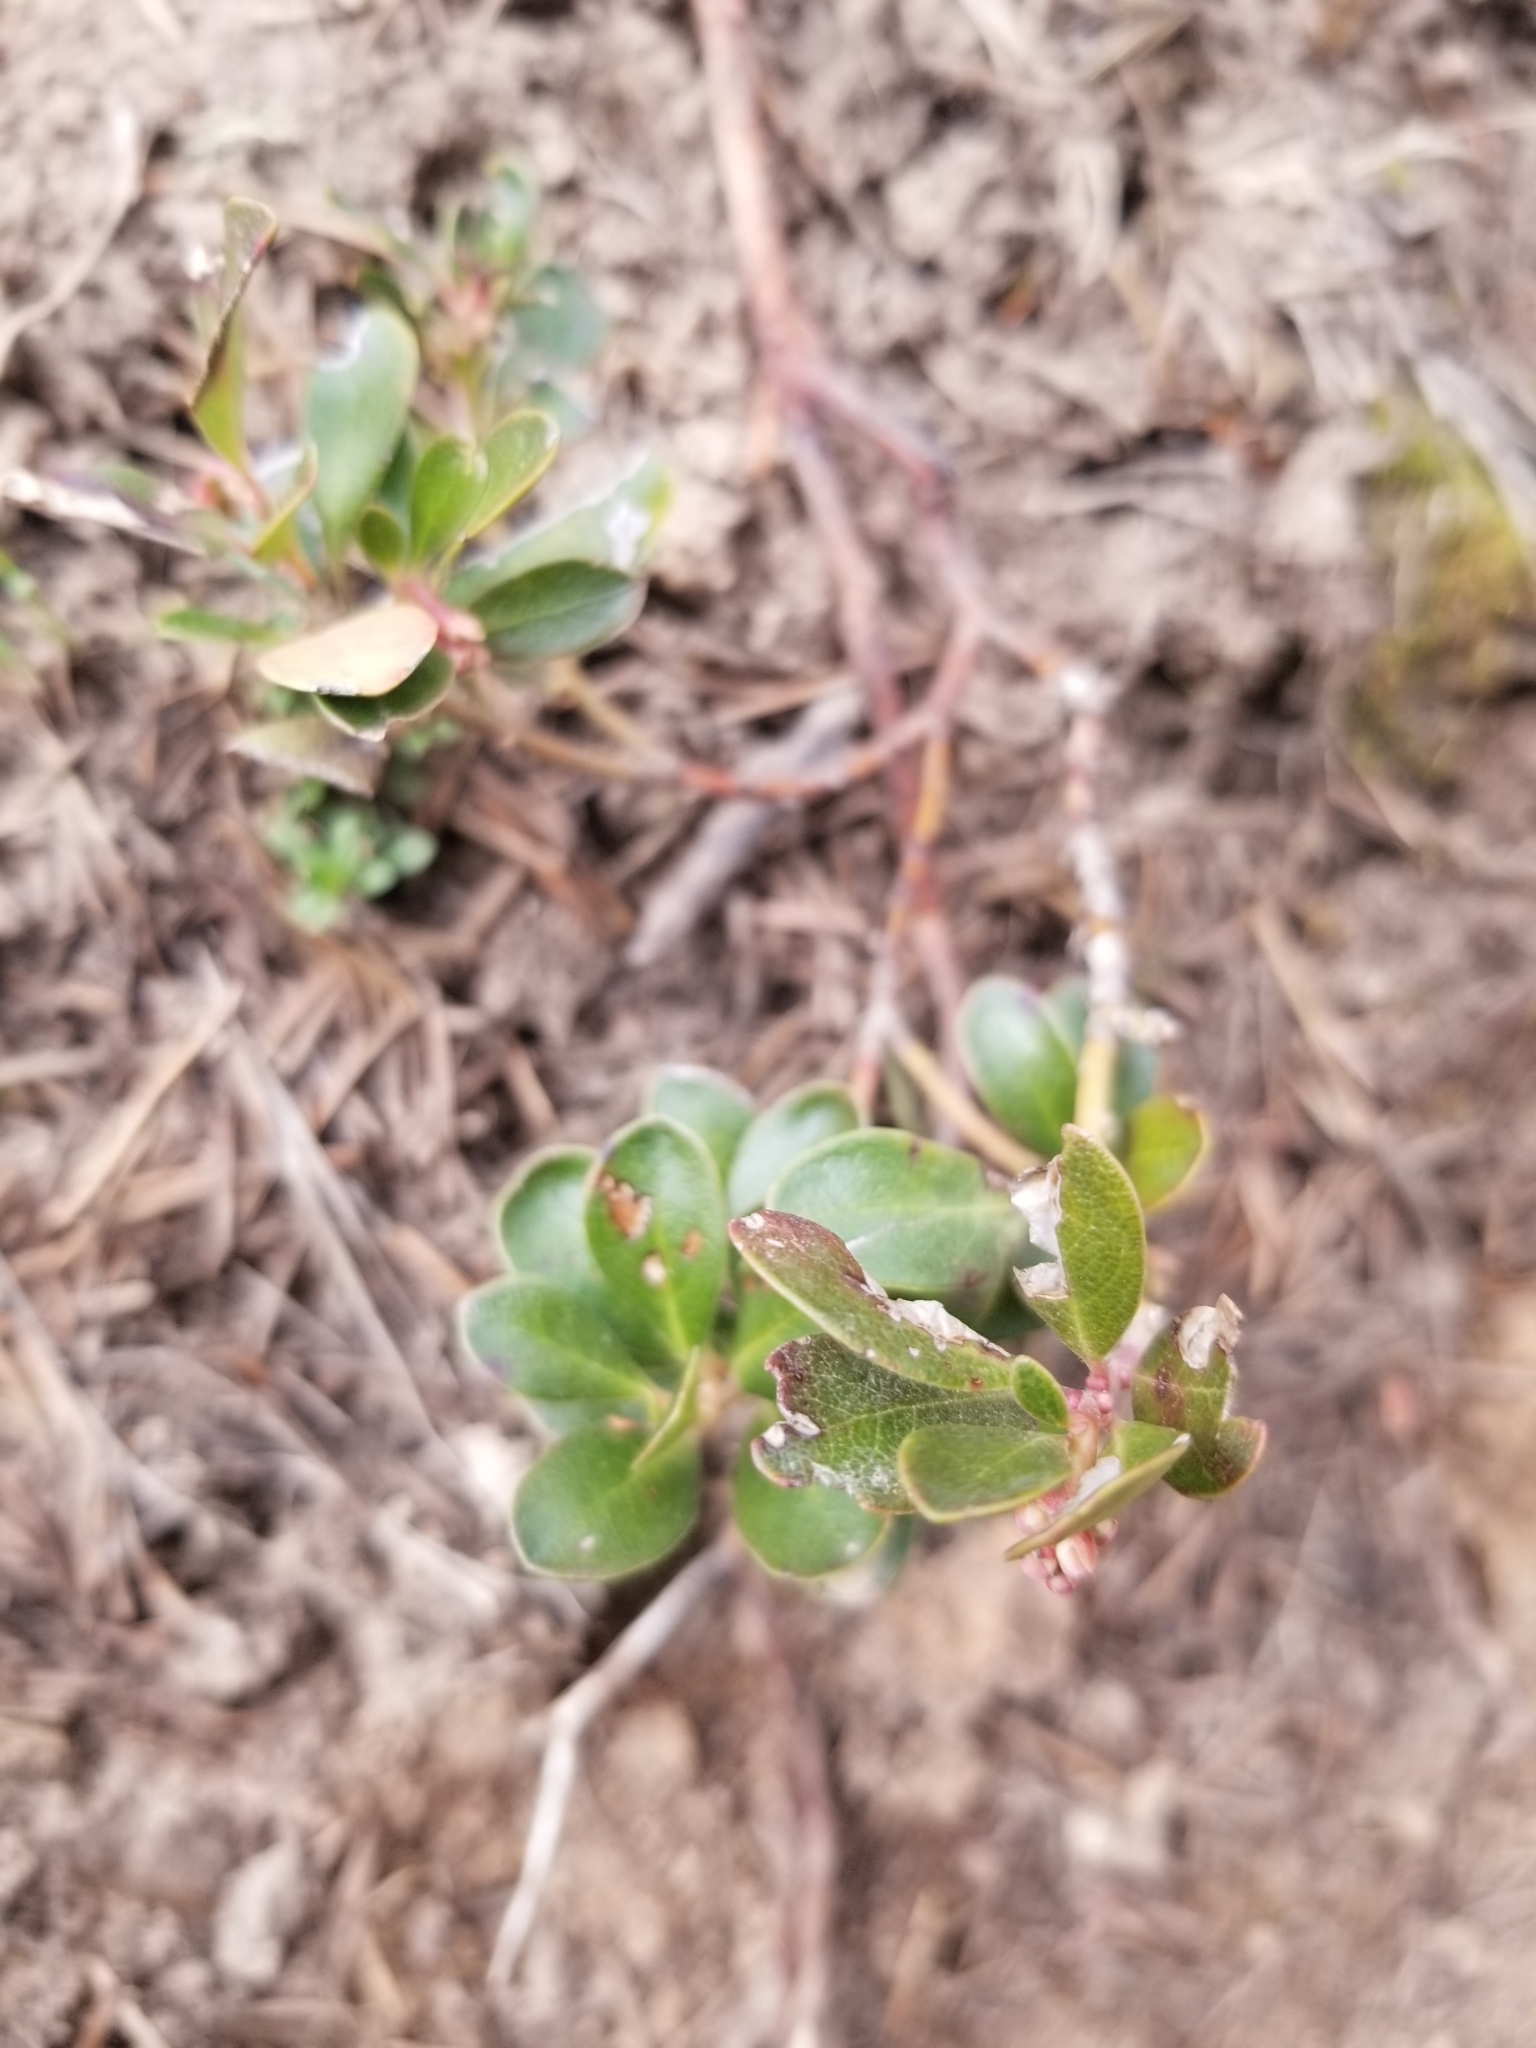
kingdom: Plantae
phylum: Tracheophyta
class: Magnoliopsida
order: Ericales
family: Ericaceae
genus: Arctostaphylos
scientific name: Arctostaphylos uva-ursi
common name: Bearberry
